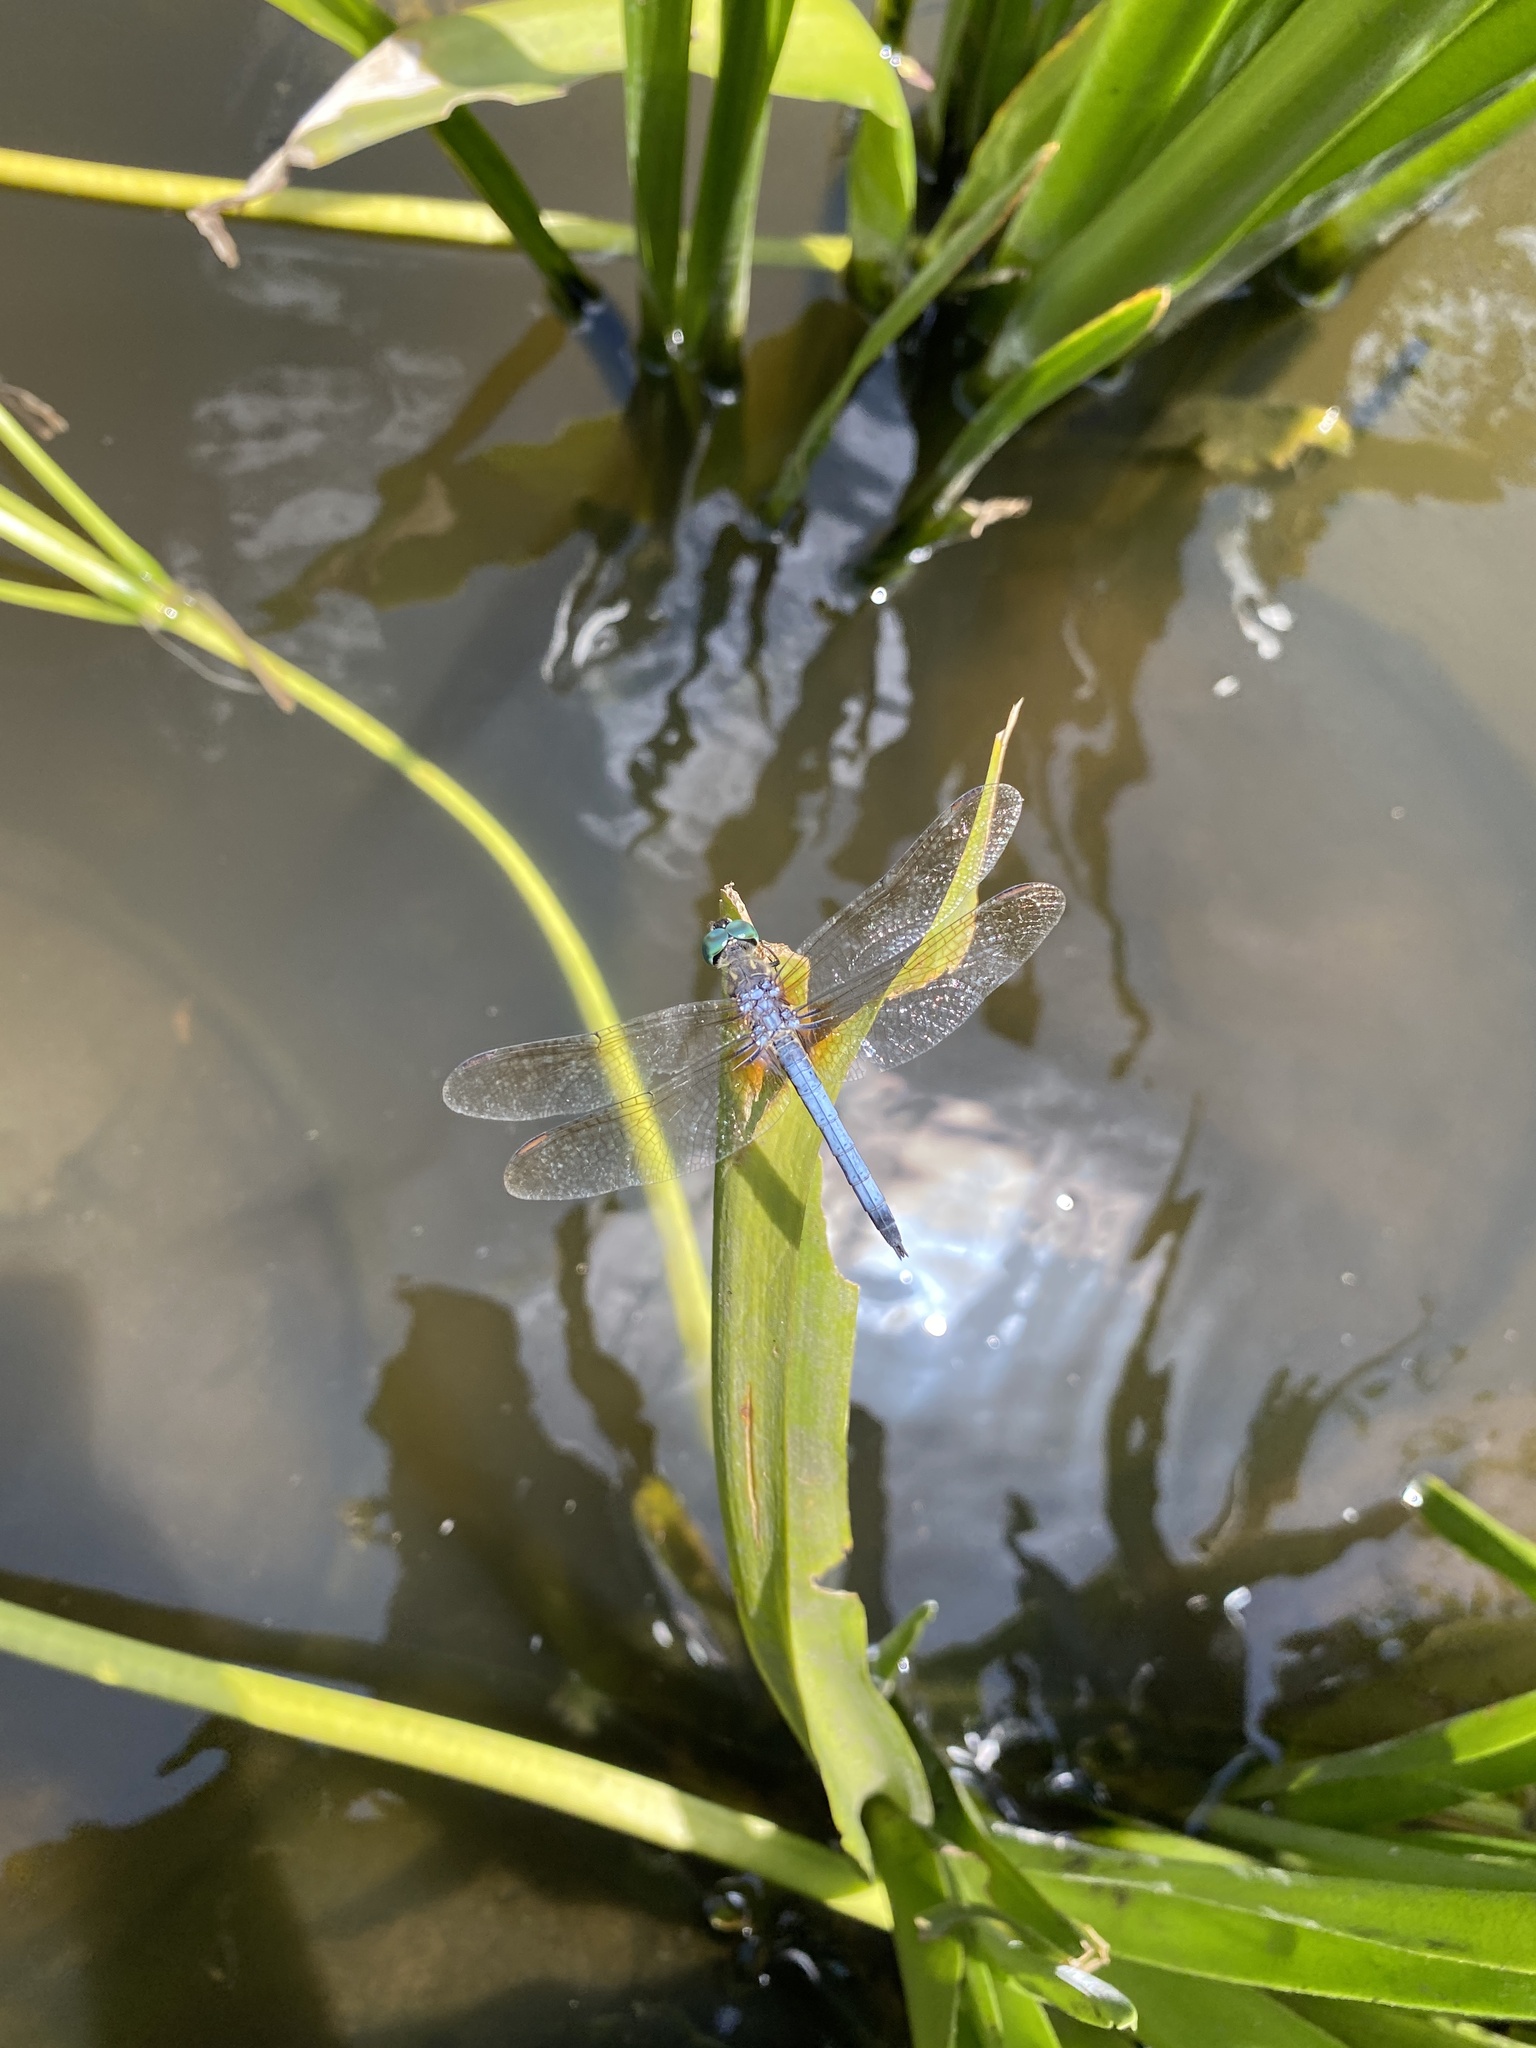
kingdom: Animalia
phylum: Arthropoda
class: Insecta
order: Odonata
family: Libellulidae
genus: Pachydiplax
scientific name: Pachydiplax longipennis
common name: Blue dasher
